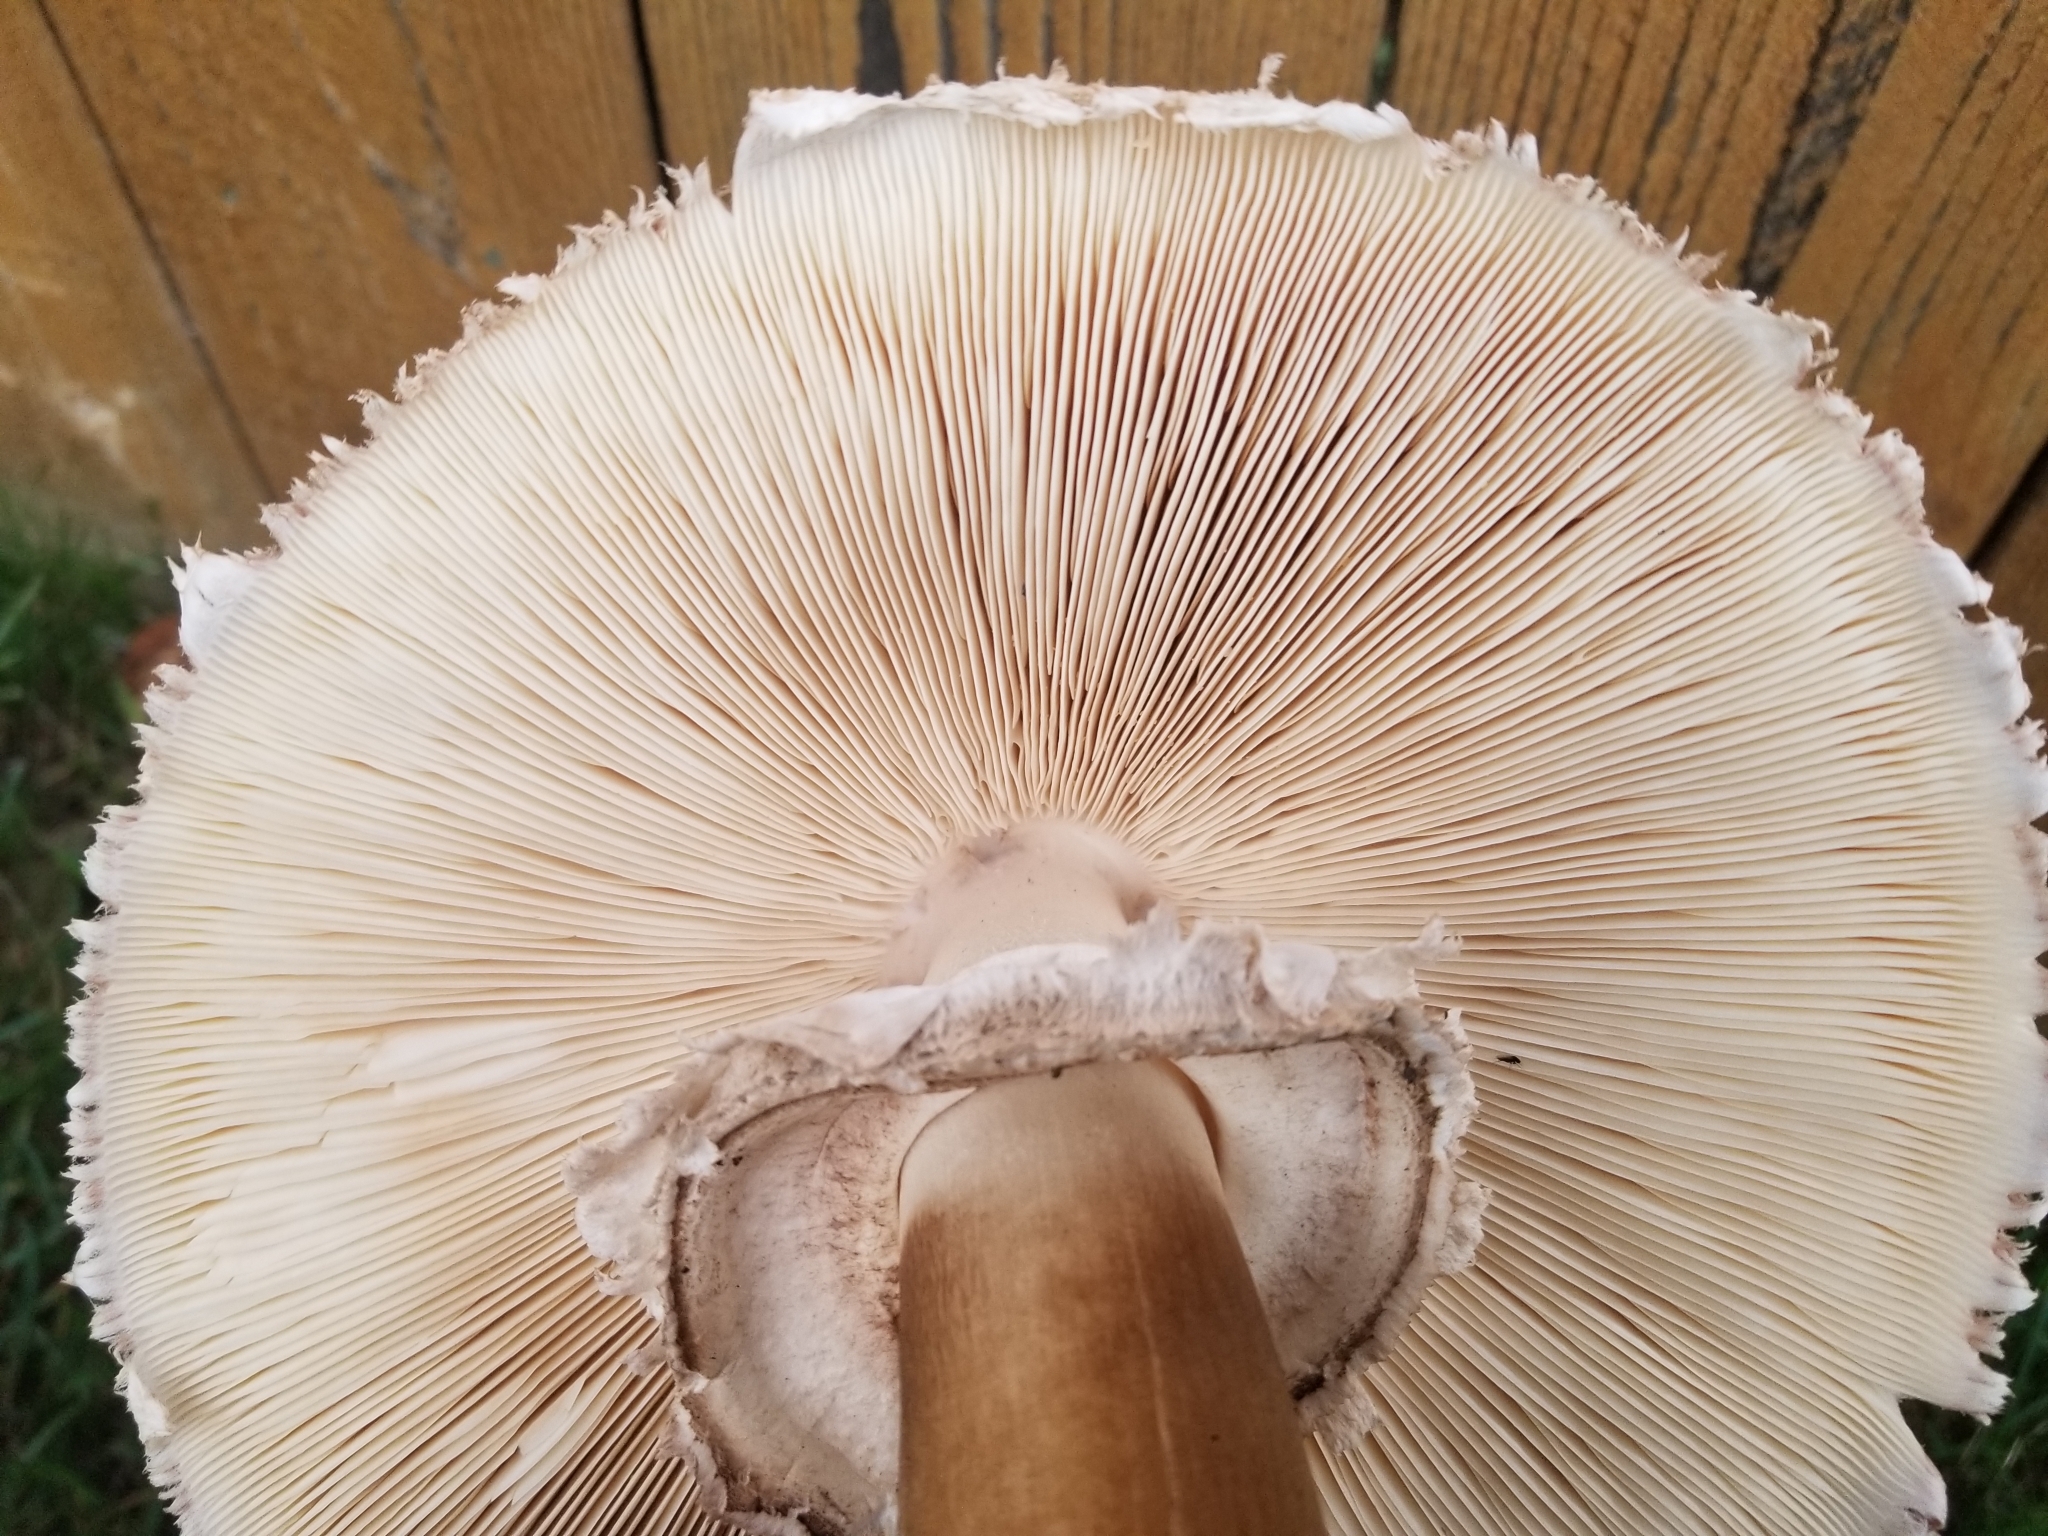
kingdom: Fungi
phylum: Basidiomycota
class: Agaricomycetes
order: Agaricales
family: Agaricaceae
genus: Chlorophyllum
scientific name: Chlorophyllum brunneum
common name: Brown parasol
